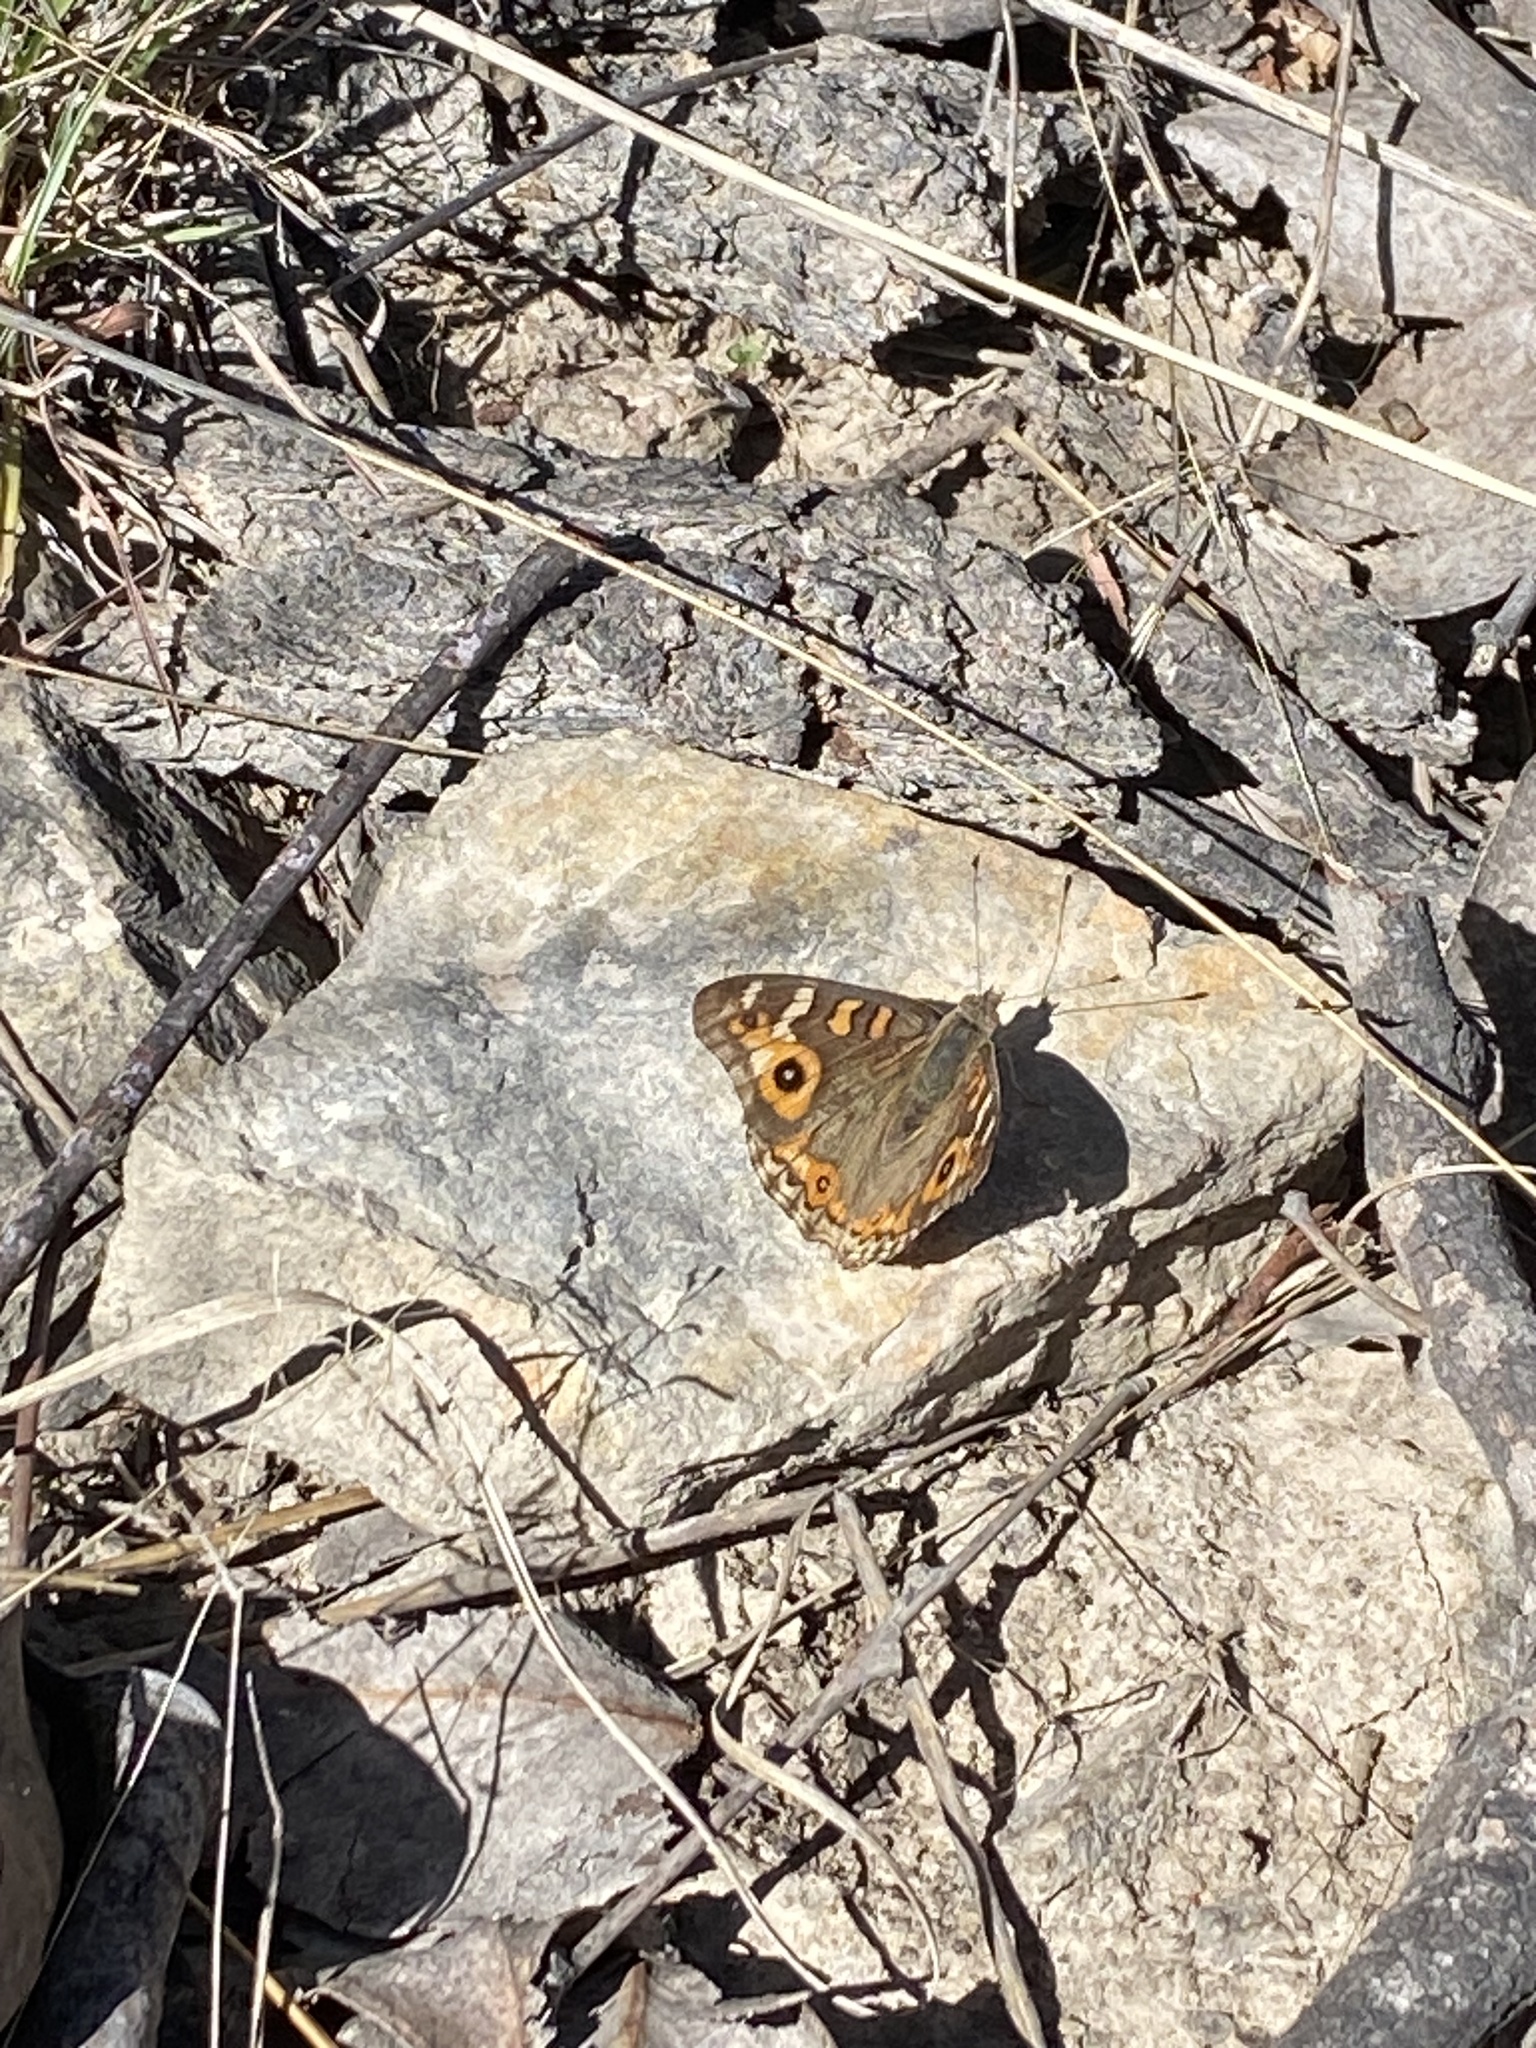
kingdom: Animalia
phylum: Arthropoda
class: Insecta
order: Lepidoptera
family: Nymphalidae
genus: Junonia
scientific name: Junonia villida
